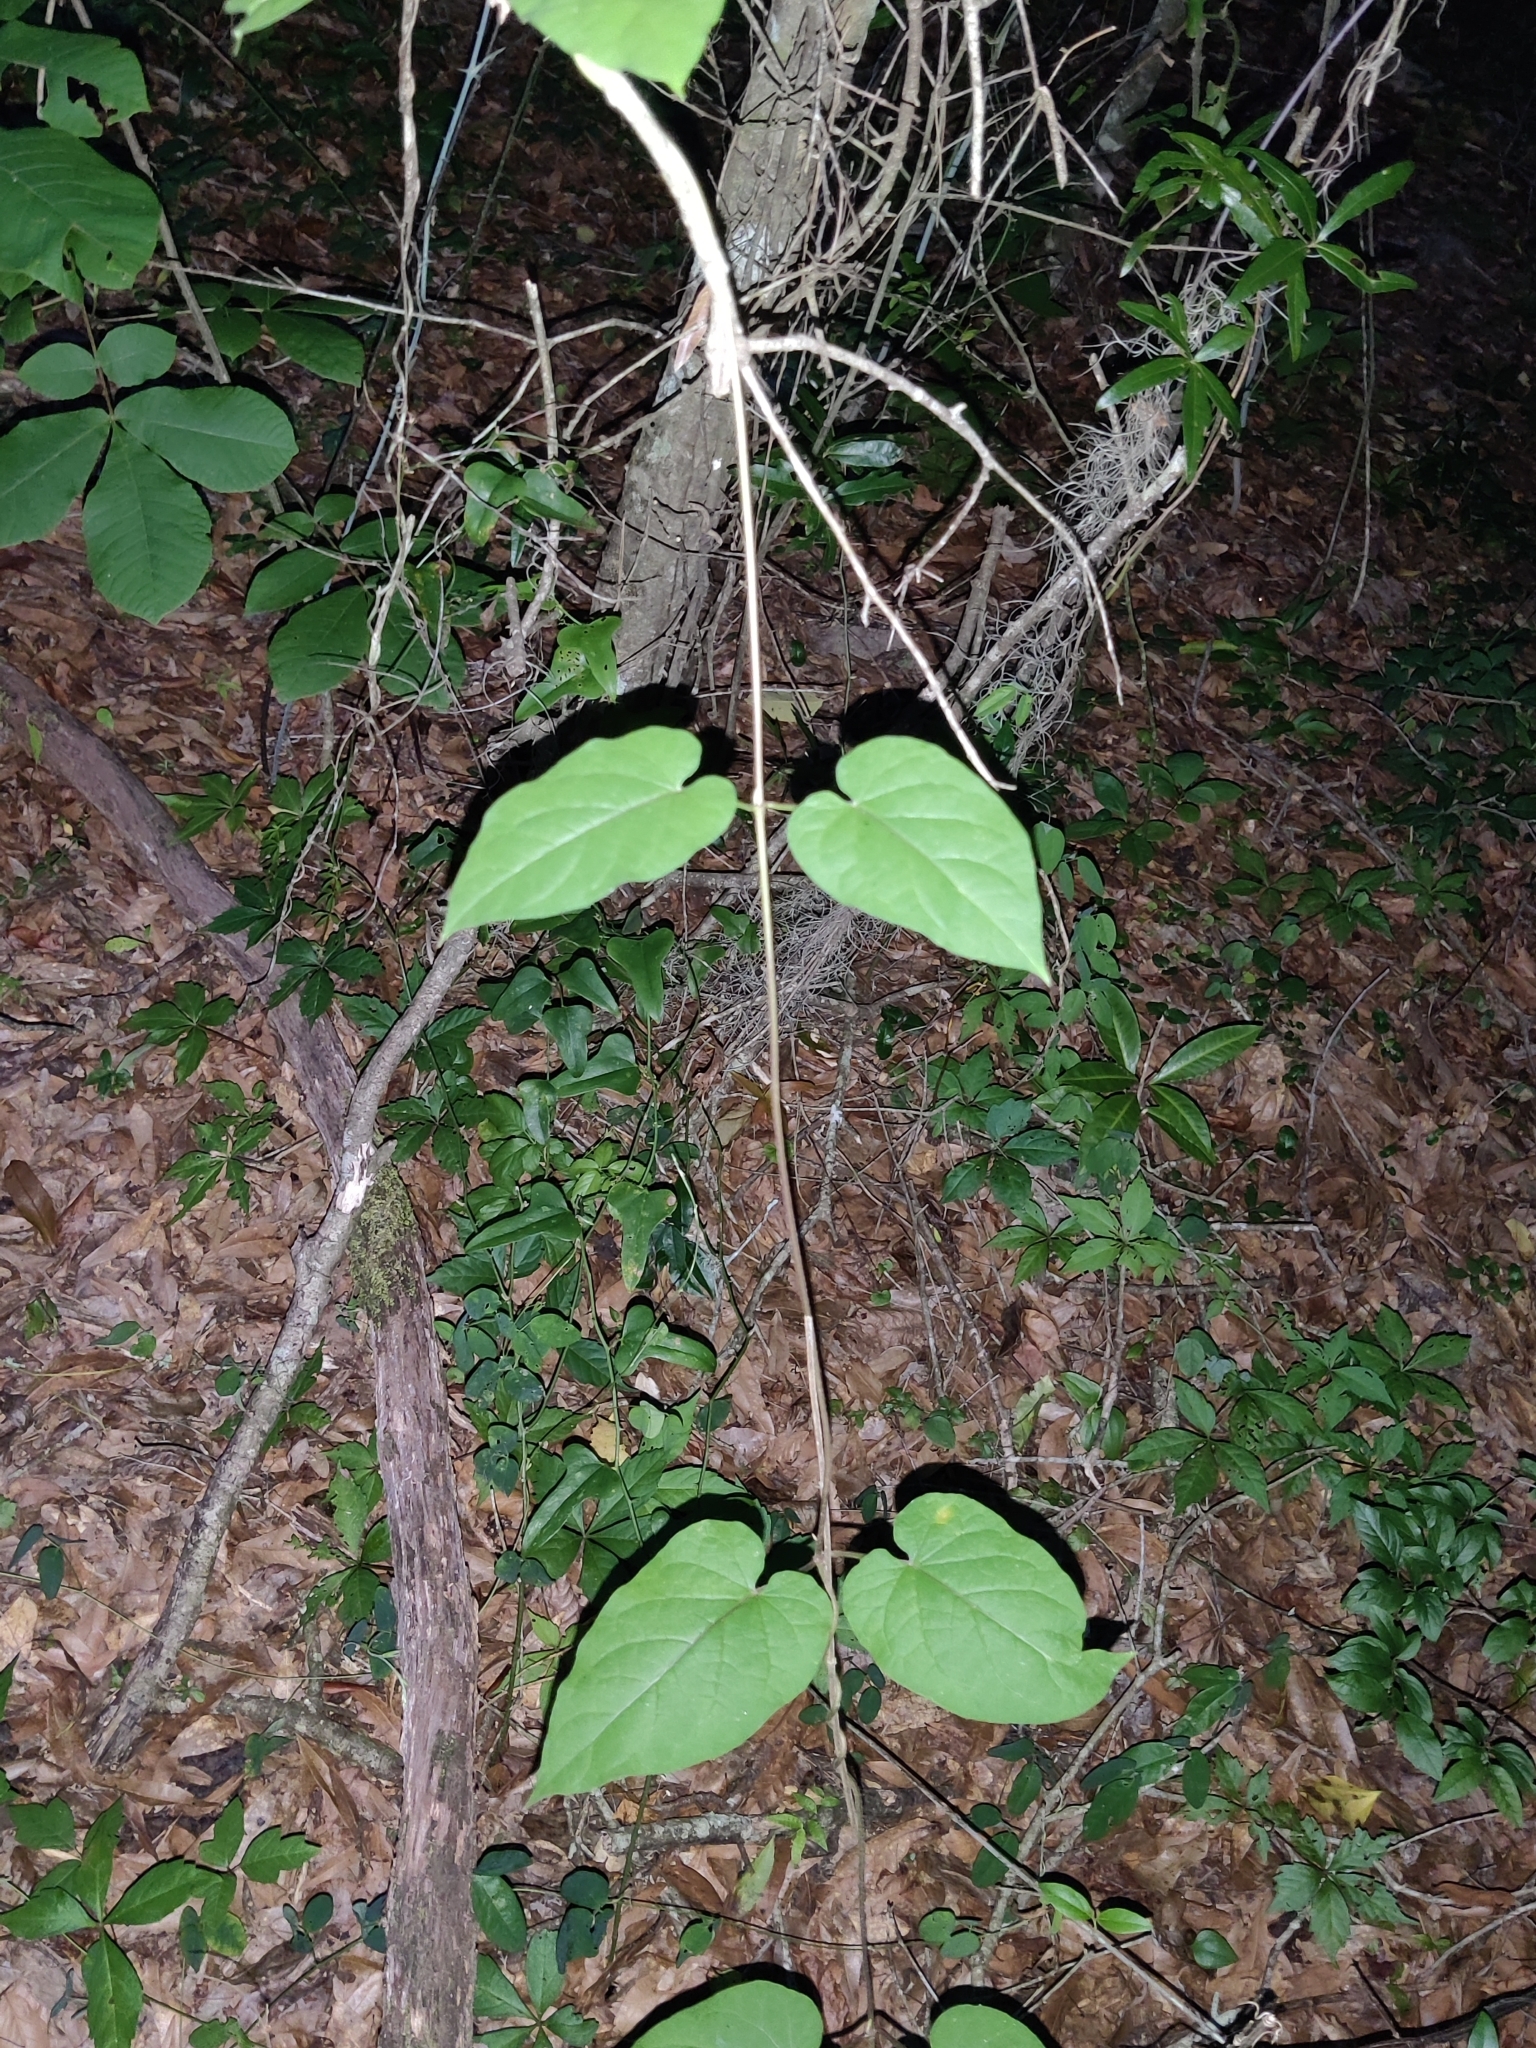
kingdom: Plantae
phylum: Tracheophyta
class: Magnoliopsida
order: Gentianales
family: Apocynaceae
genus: Gonolobus
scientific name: Gonolobus suberosus
